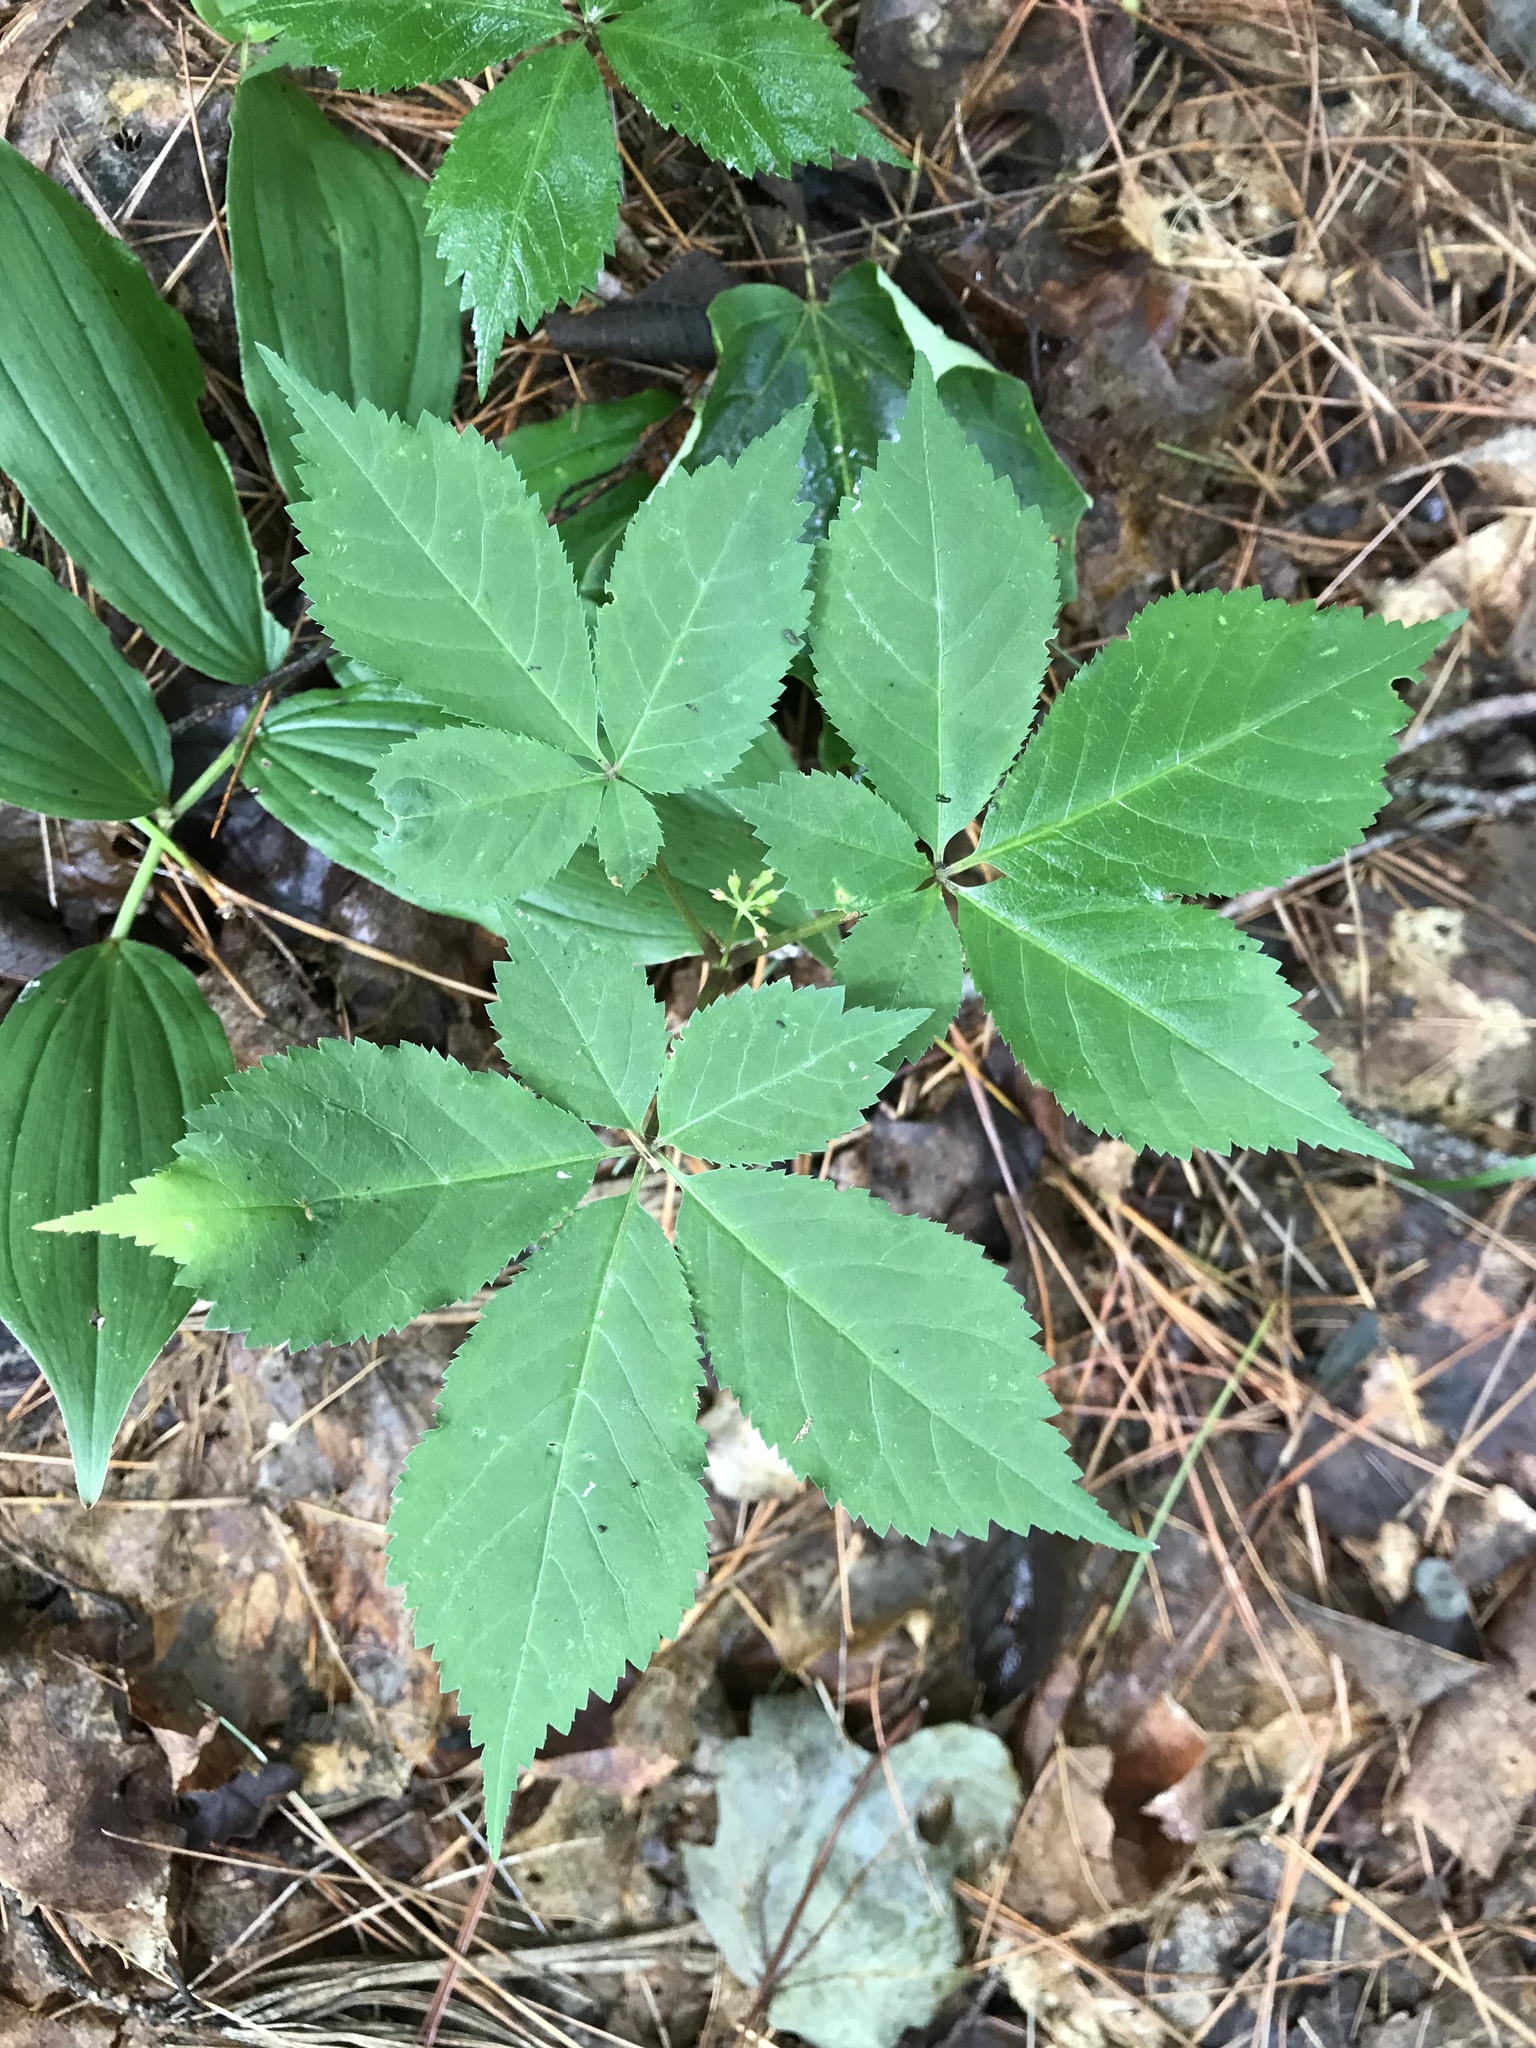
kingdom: Plantae
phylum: Tracheophyta
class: Magnoliopsida
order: Apiales
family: Araliaceae
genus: Panax
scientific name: Panax quinquefolius
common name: American ginseng
